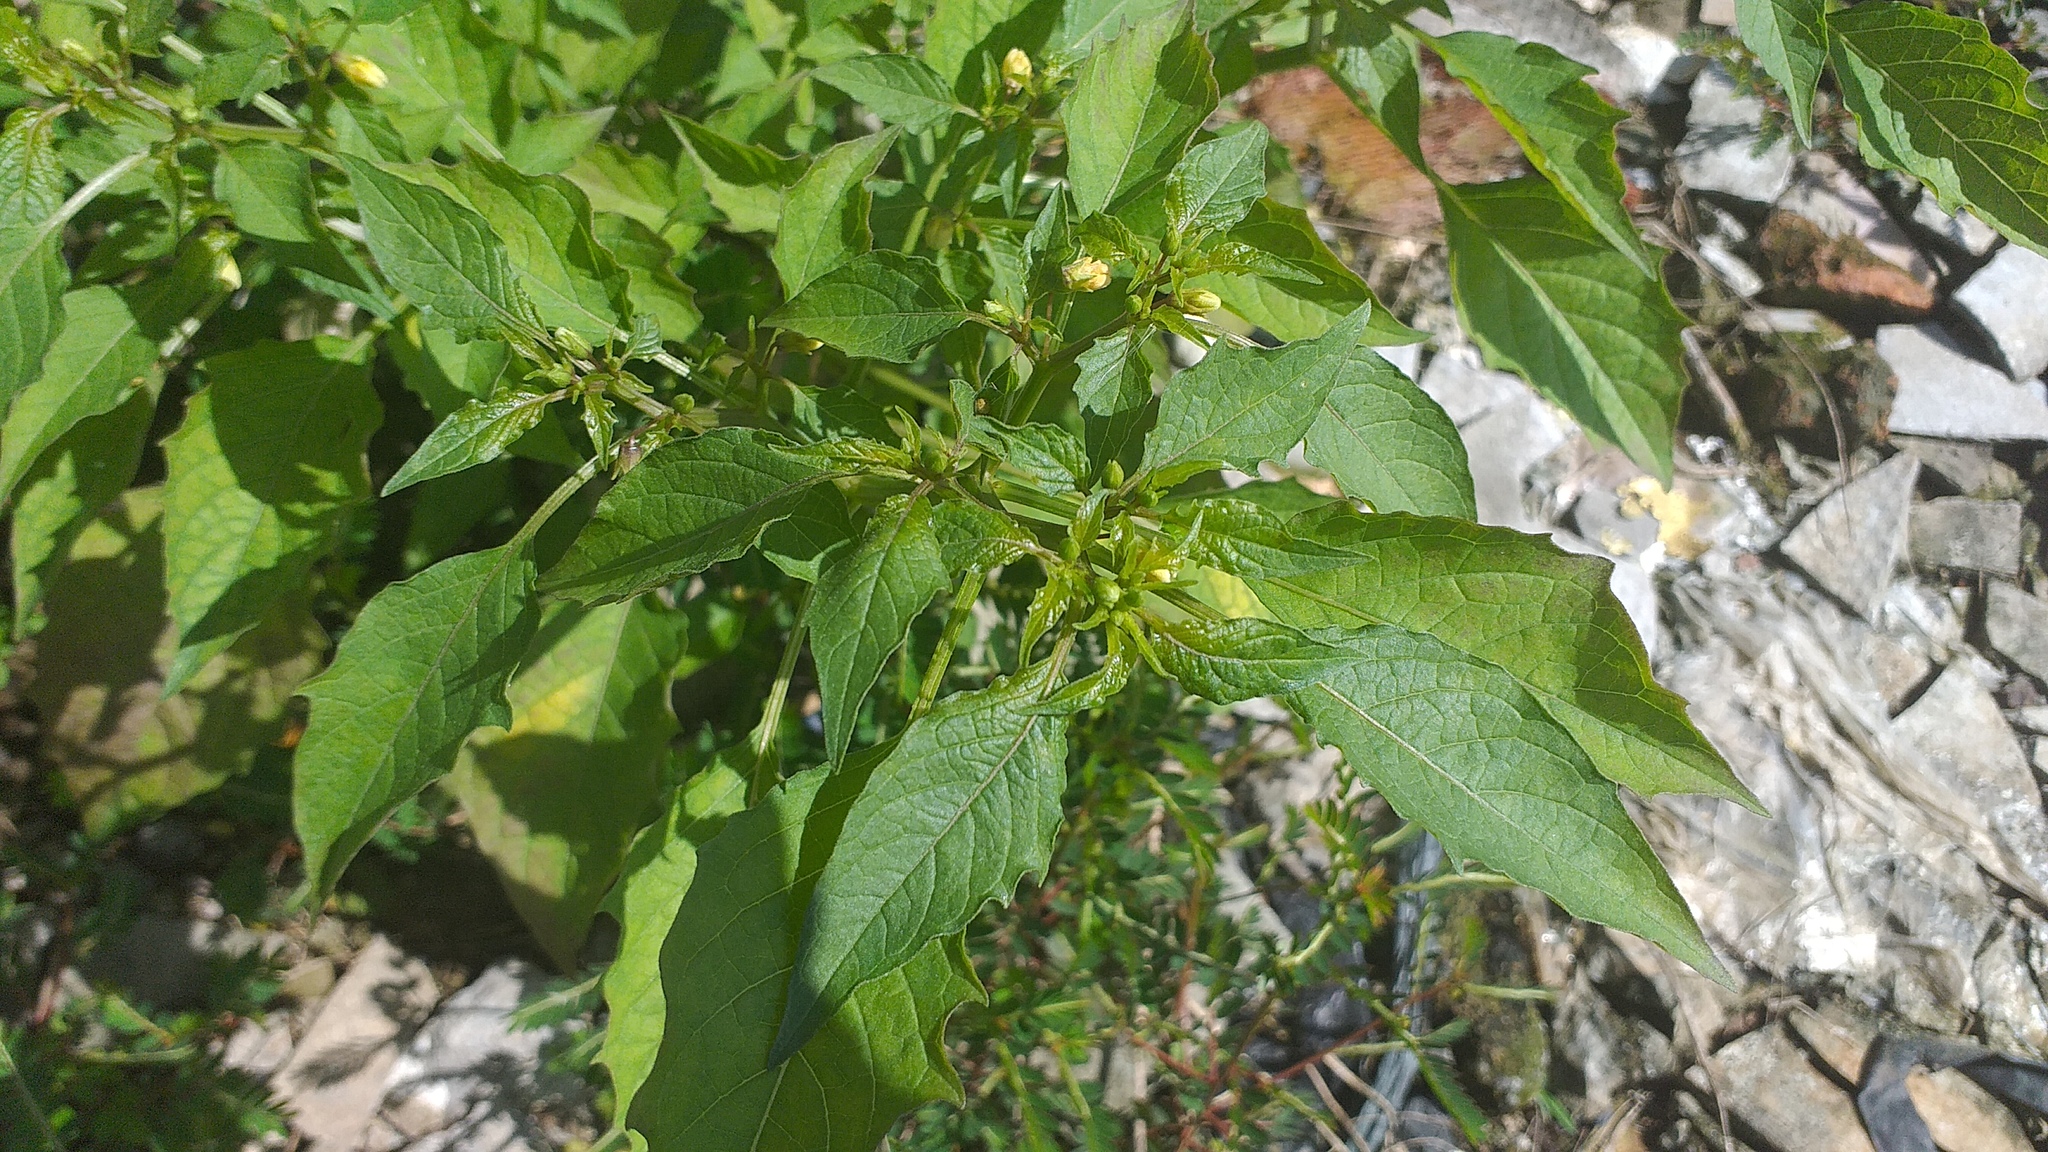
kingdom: Plantae
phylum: Tracheophyta
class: Magnoliopsida
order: Solanales
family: Solanaceae
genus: Physalis
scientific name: Physalis angulata
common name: Angular winter-cherry
